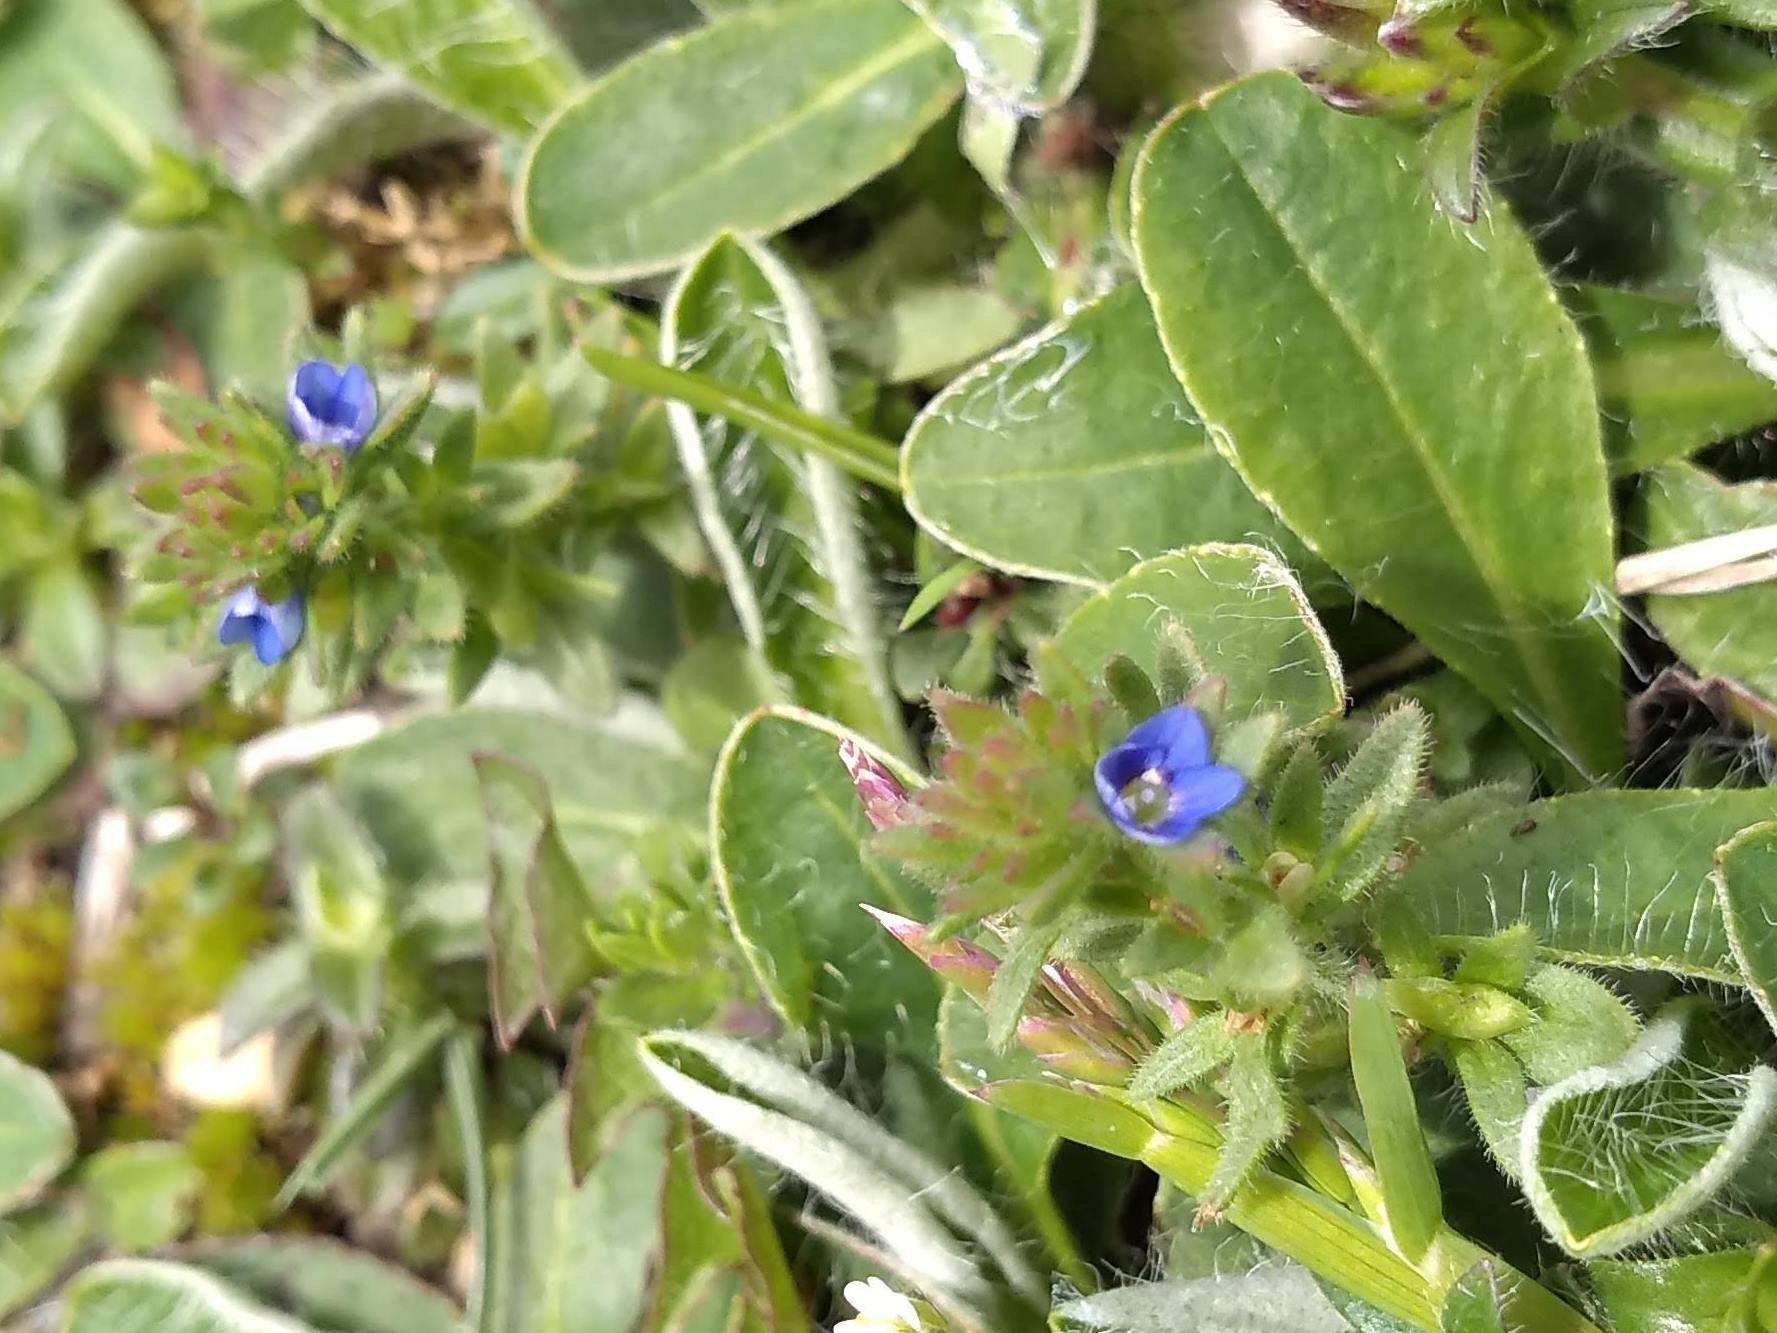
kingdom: Plantae
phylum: Tracheophyta
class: Magnoliopsida
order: Lamiales
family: Plantaginaceae
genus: Veronica
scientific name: Veronica arvensis
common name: Corn speedwell
